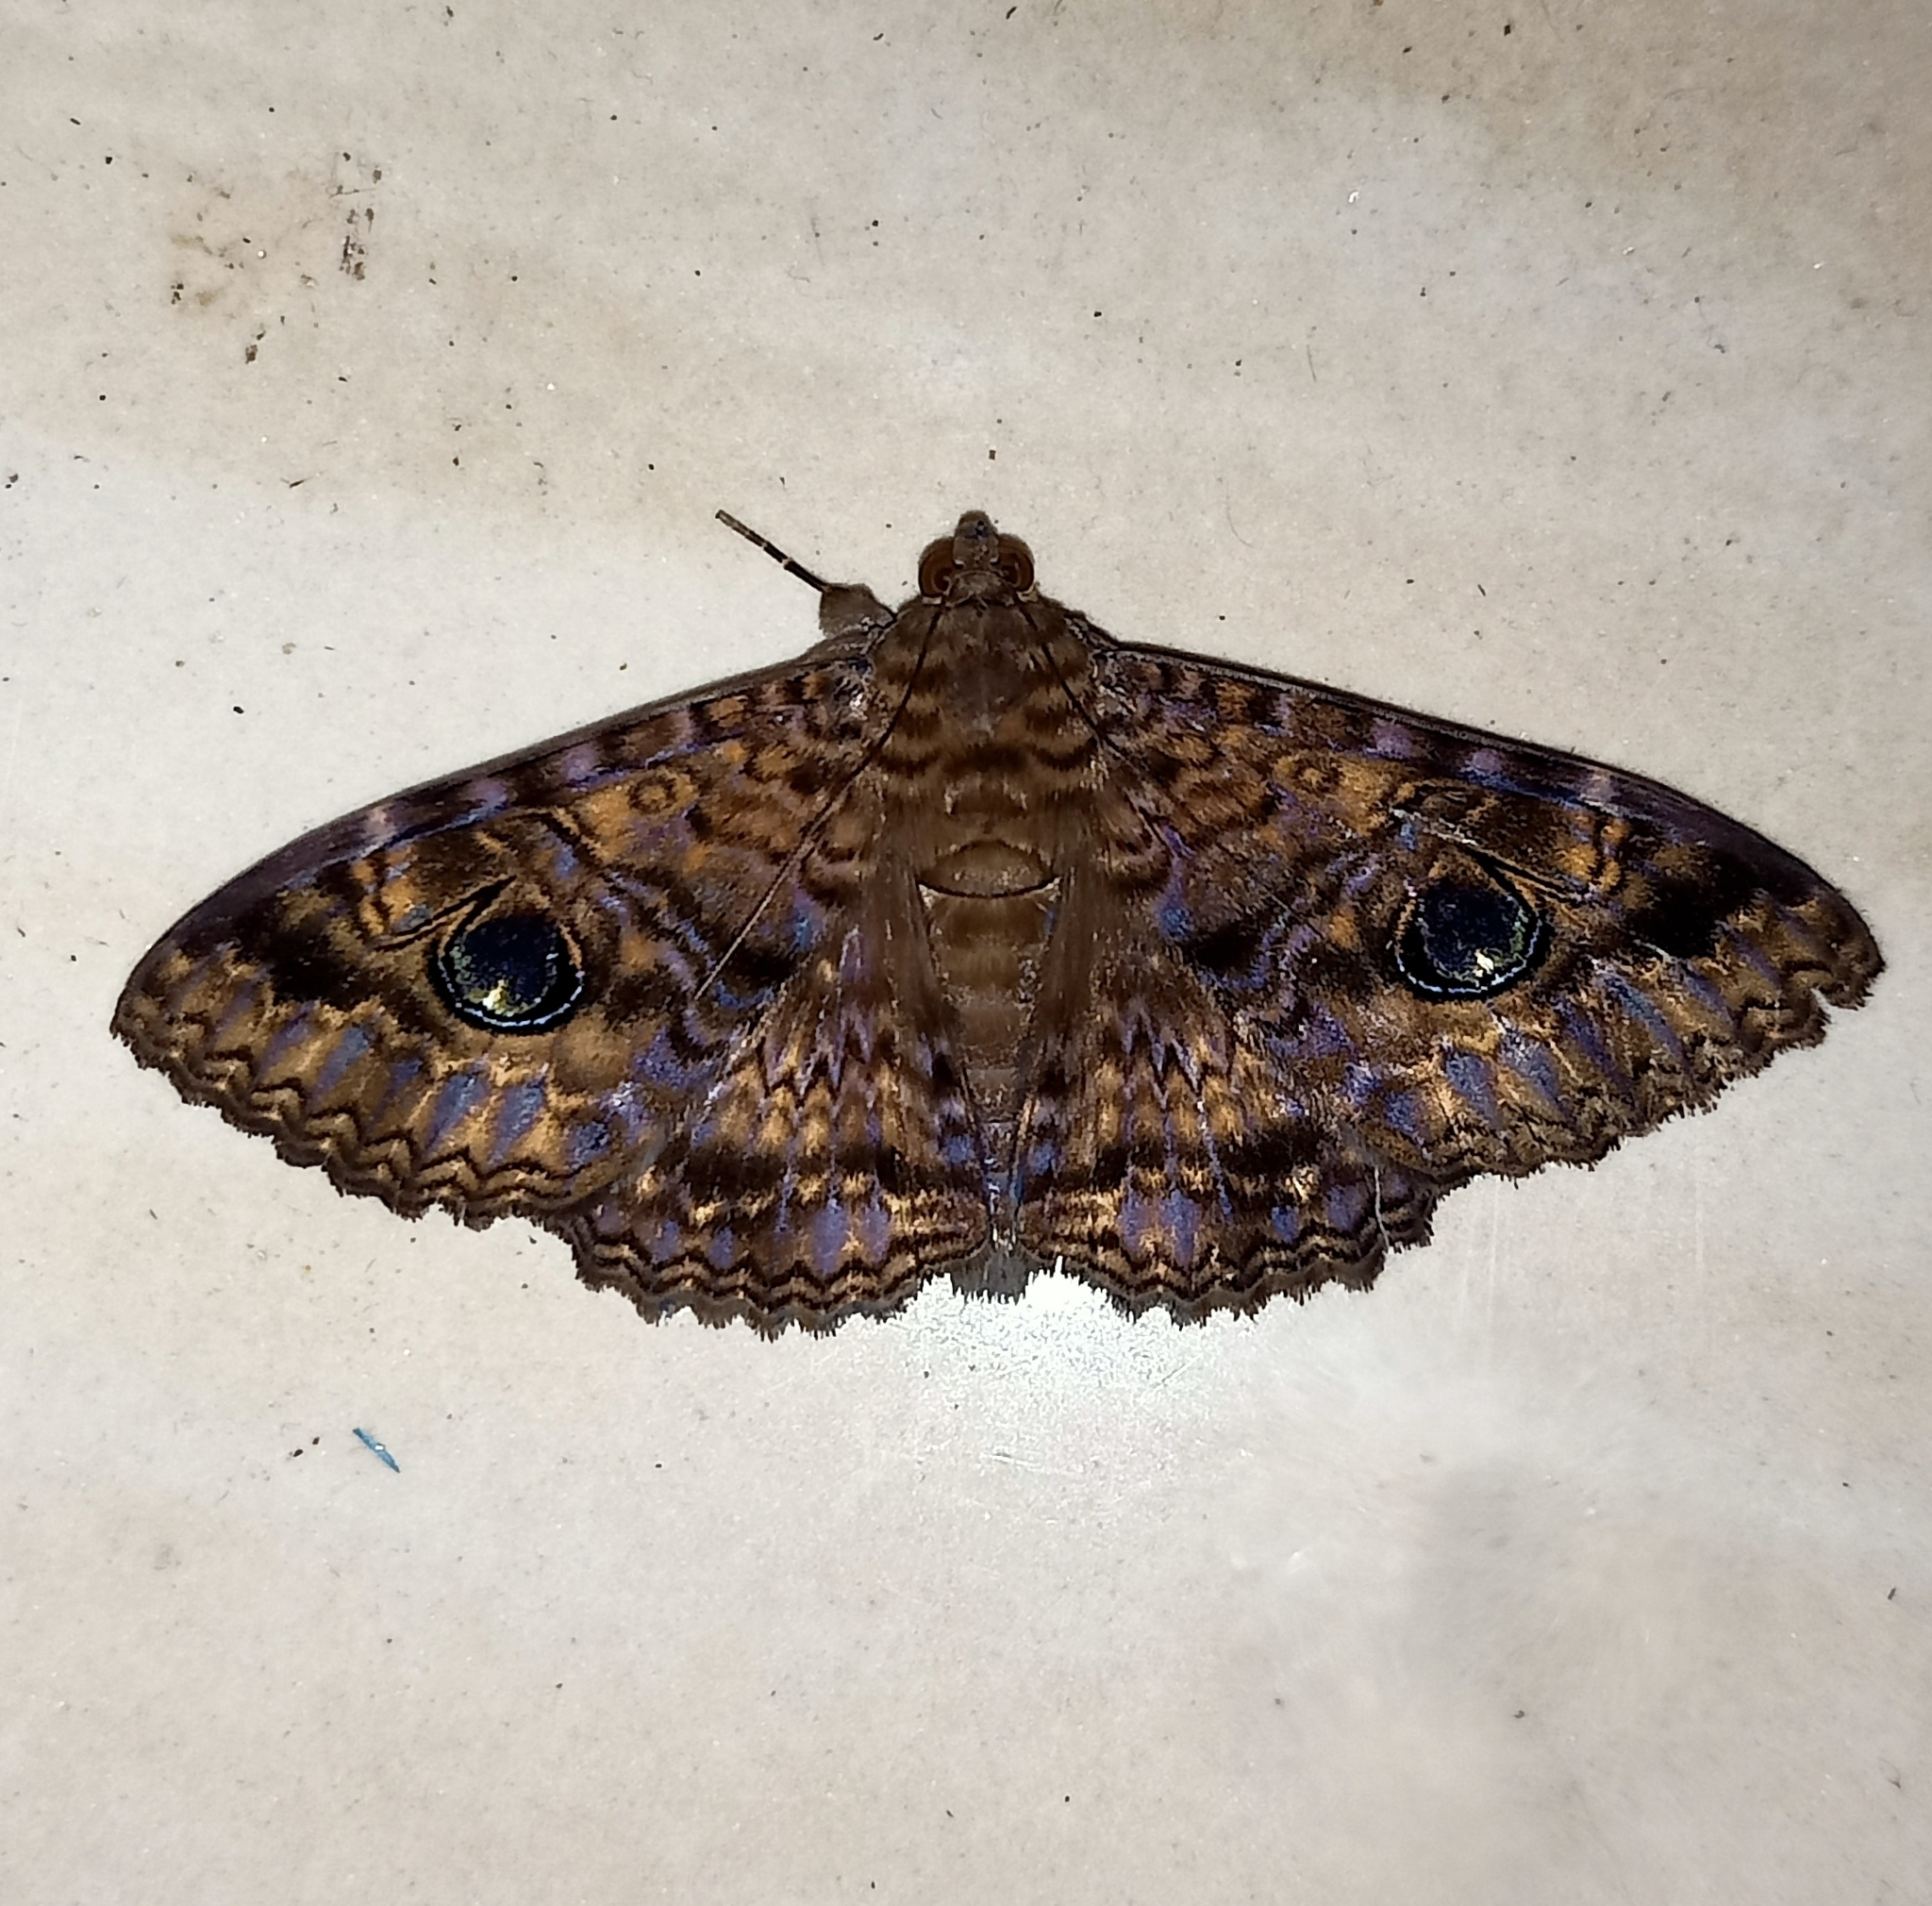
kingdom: Animalia
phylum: Arthropoda
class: Insecta
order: Lepidoptera
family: Erebidae
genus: Speiredonia
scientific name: Speiredonia obscura
